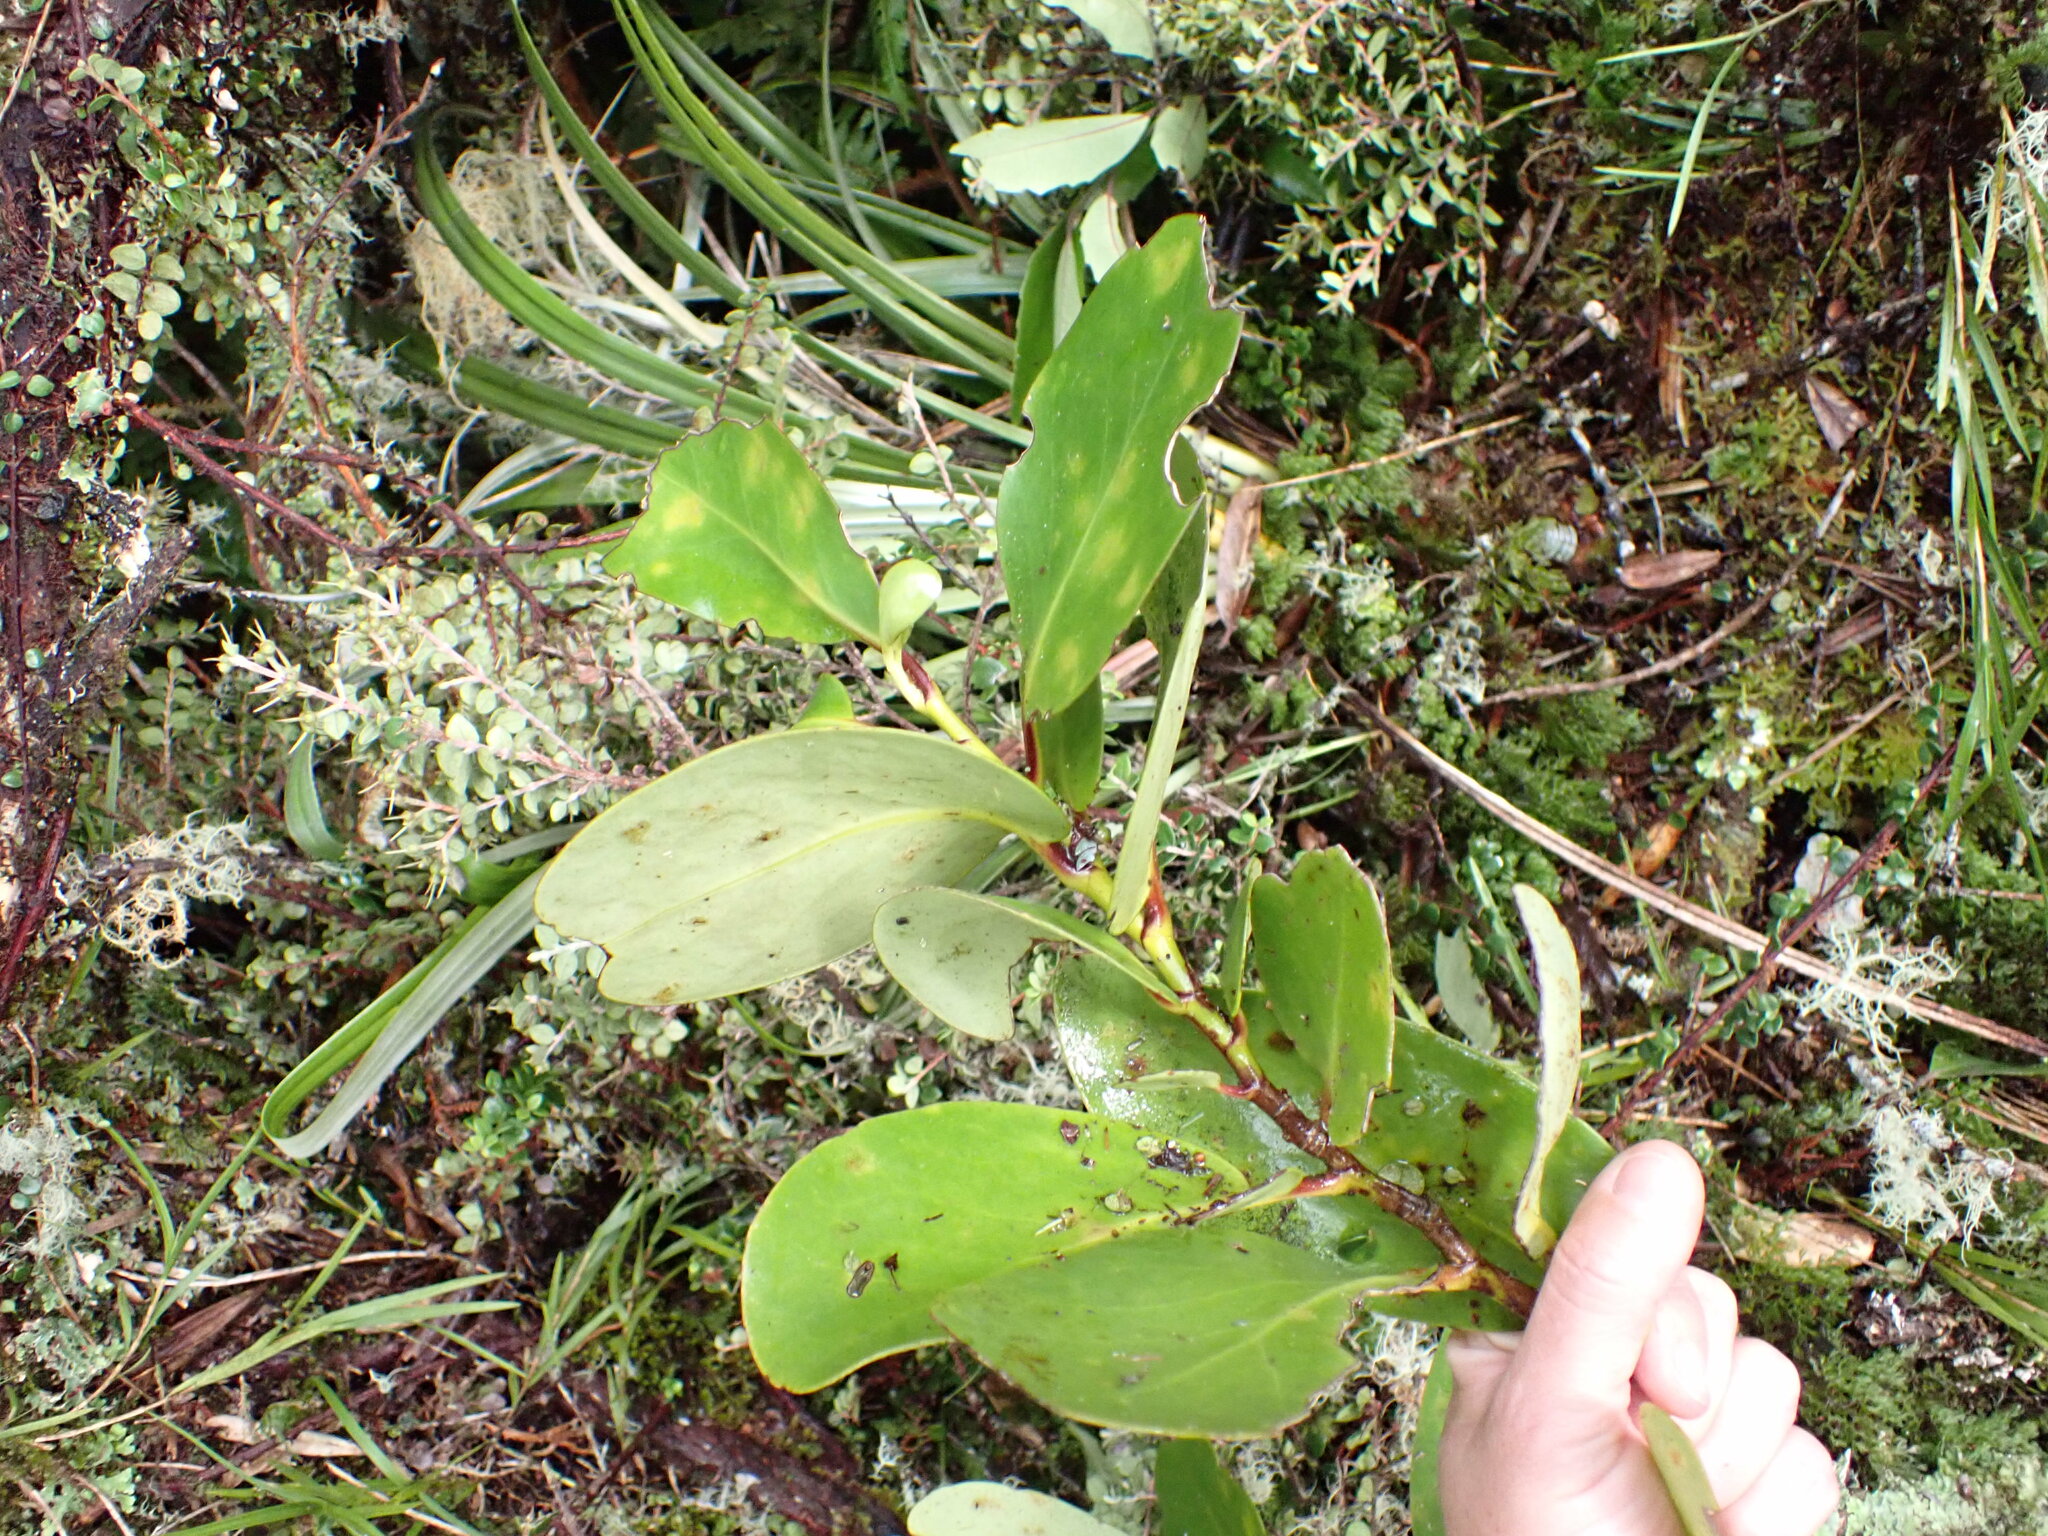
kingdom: Plantae
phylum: Tracheophyta
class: Magnoliopsida
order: Apiales
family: Griseliniaceae
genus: Griselinia
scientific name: Griselinia lucida
